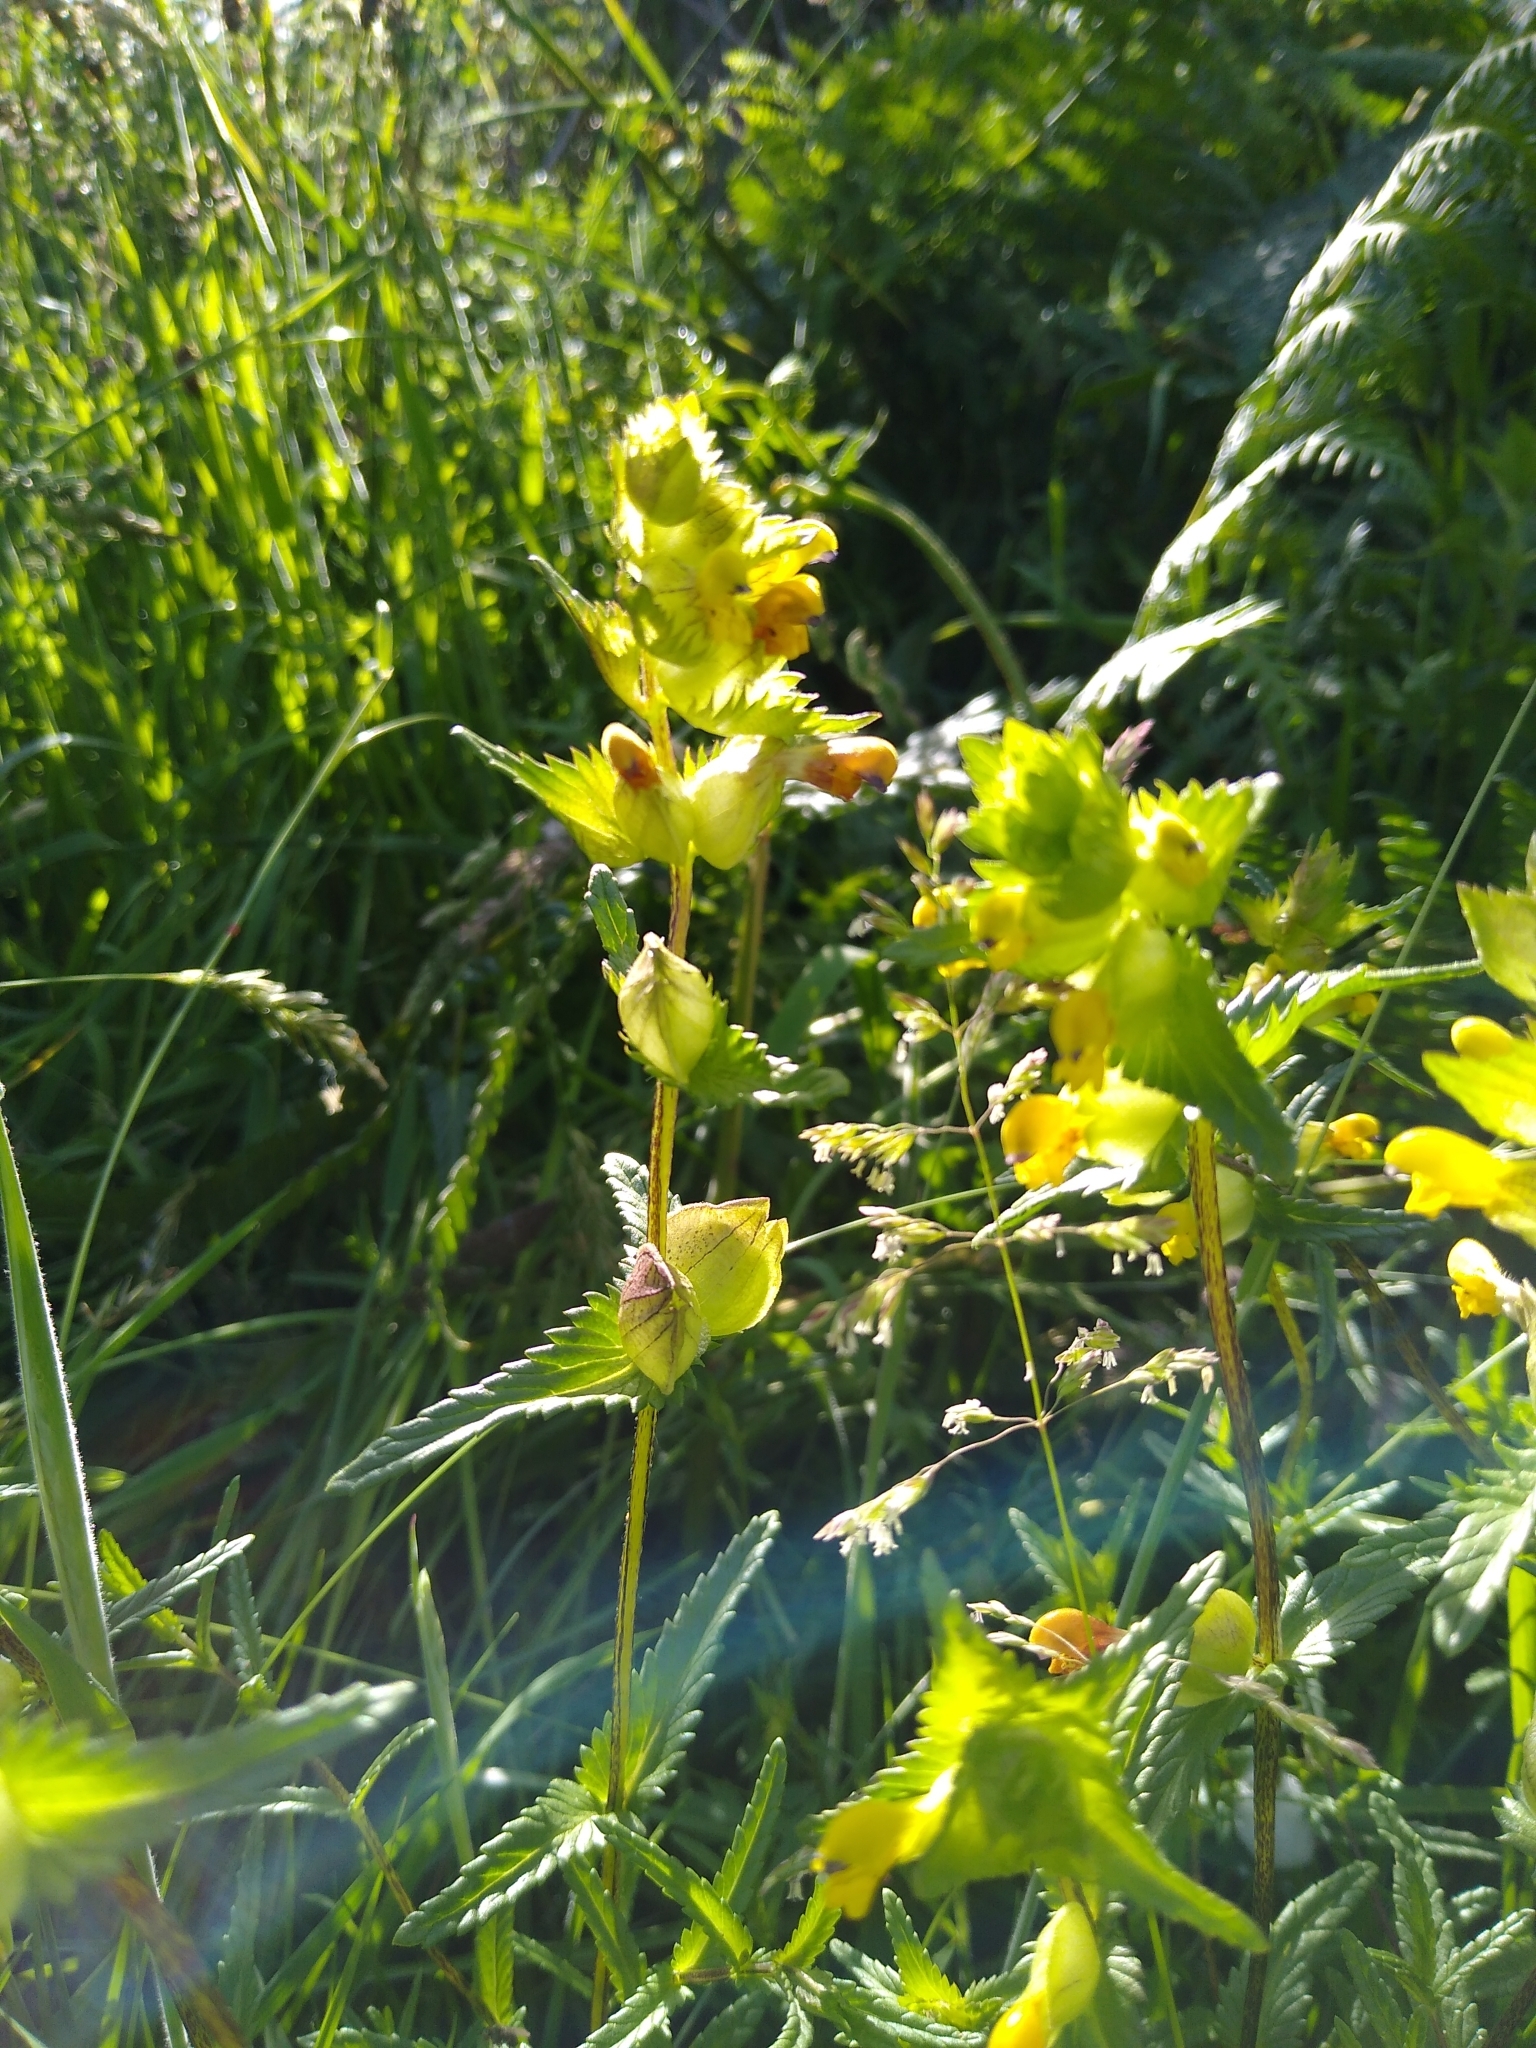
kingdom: Plantae
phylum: Tracheophyta
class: Magnoliopsida
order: Lamiales
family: Orobanchaceae
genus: Rhinanthus
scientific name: Rhinanthus minor
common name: Yellow-rattle
